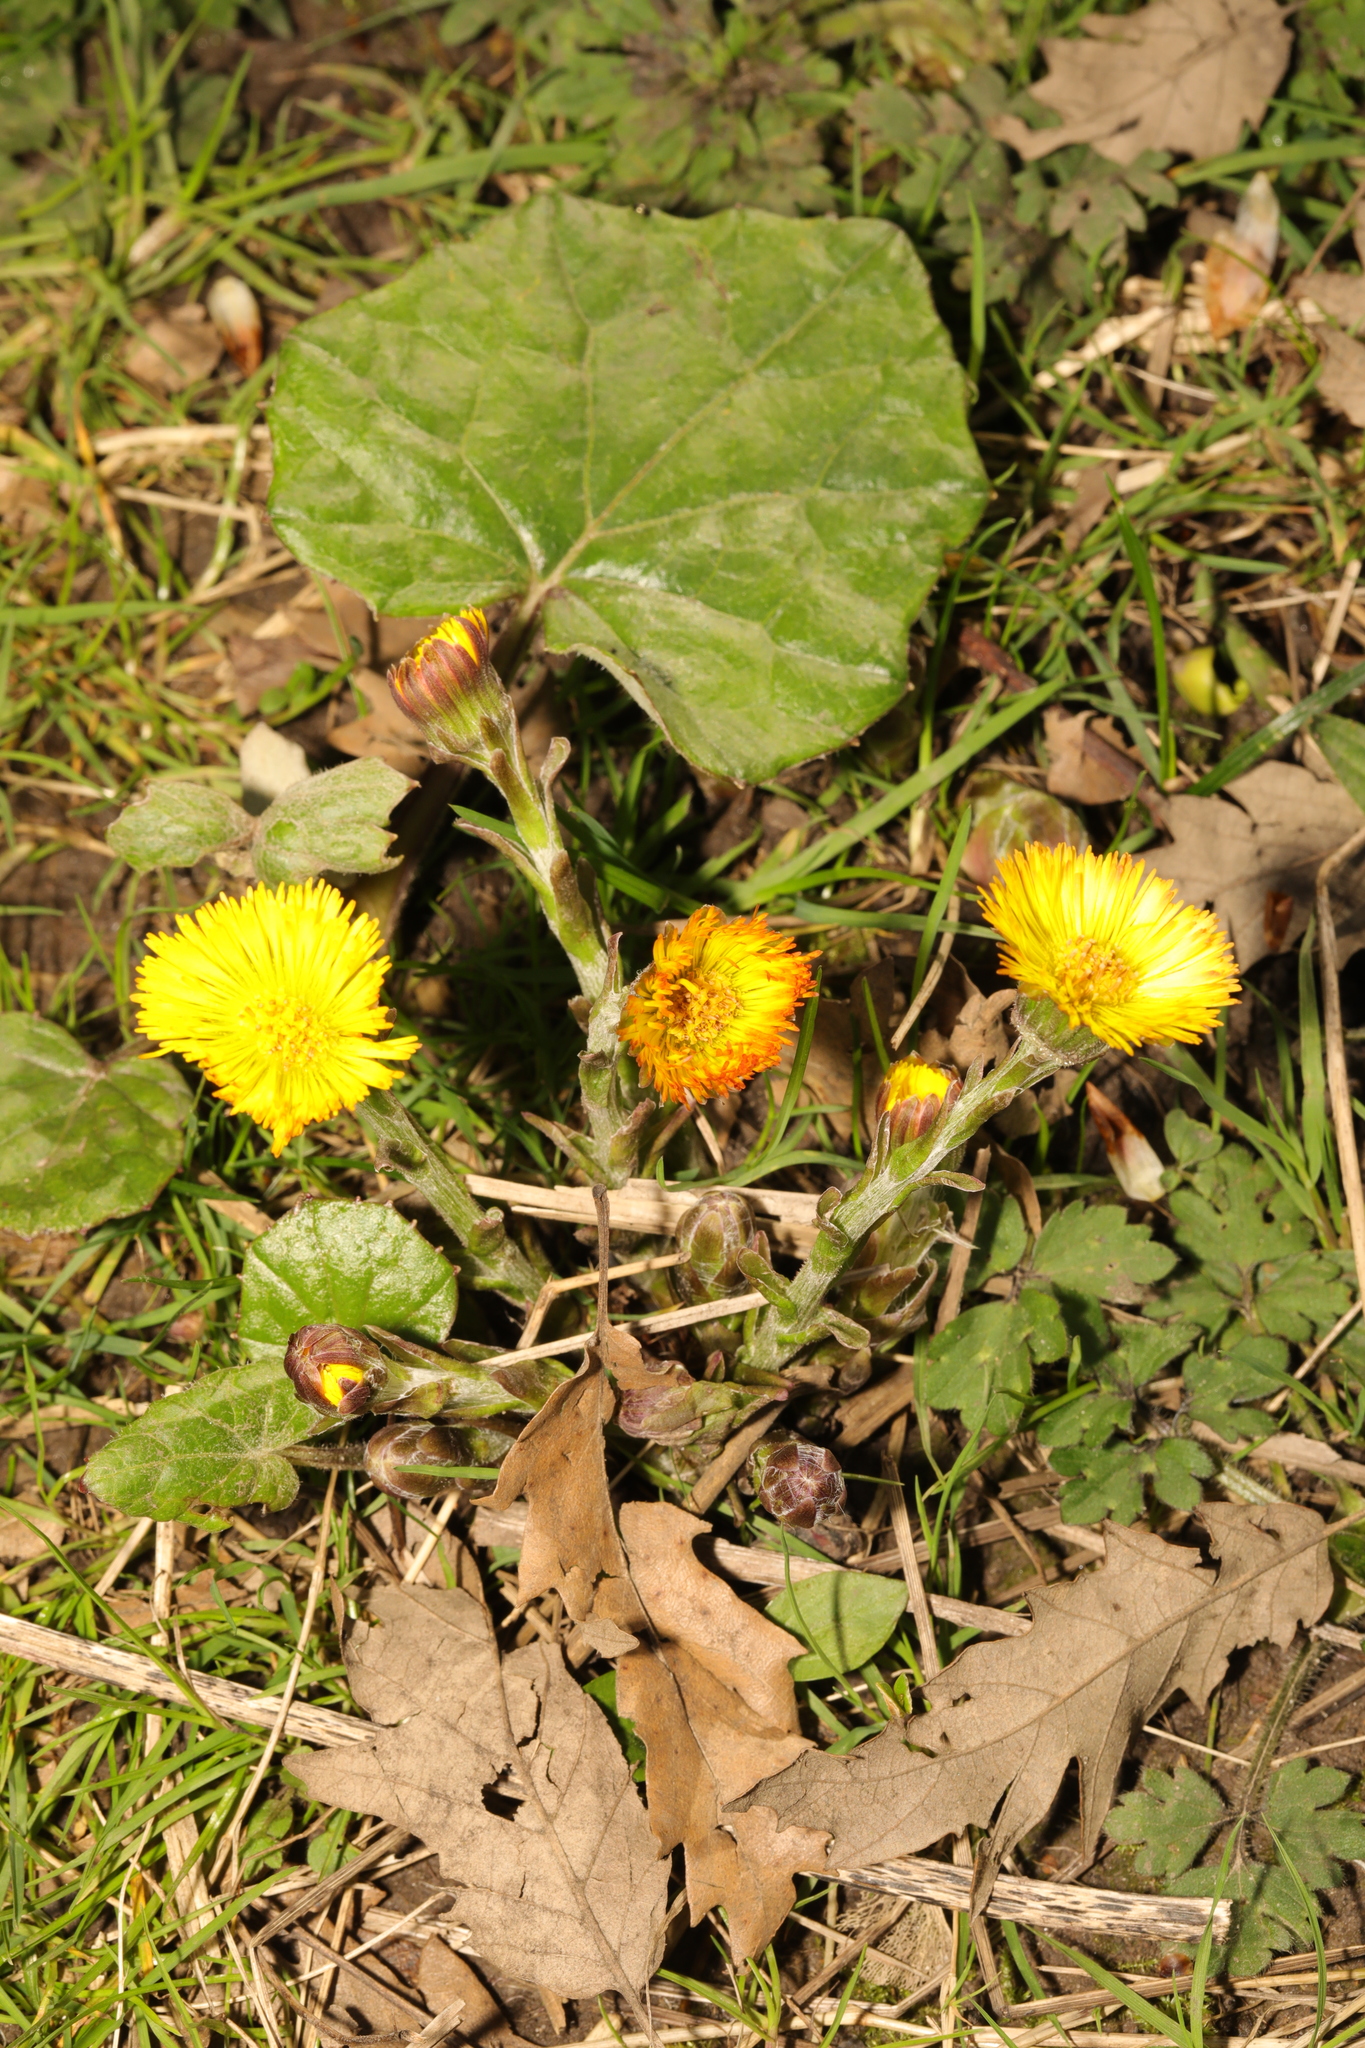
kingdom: Plantae
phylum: Tracheophyta
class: Magnoliopsida
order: Asterales
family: Asteraceae
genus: Tussilago
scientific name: Tussilago farfara
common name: Coltsfoot
